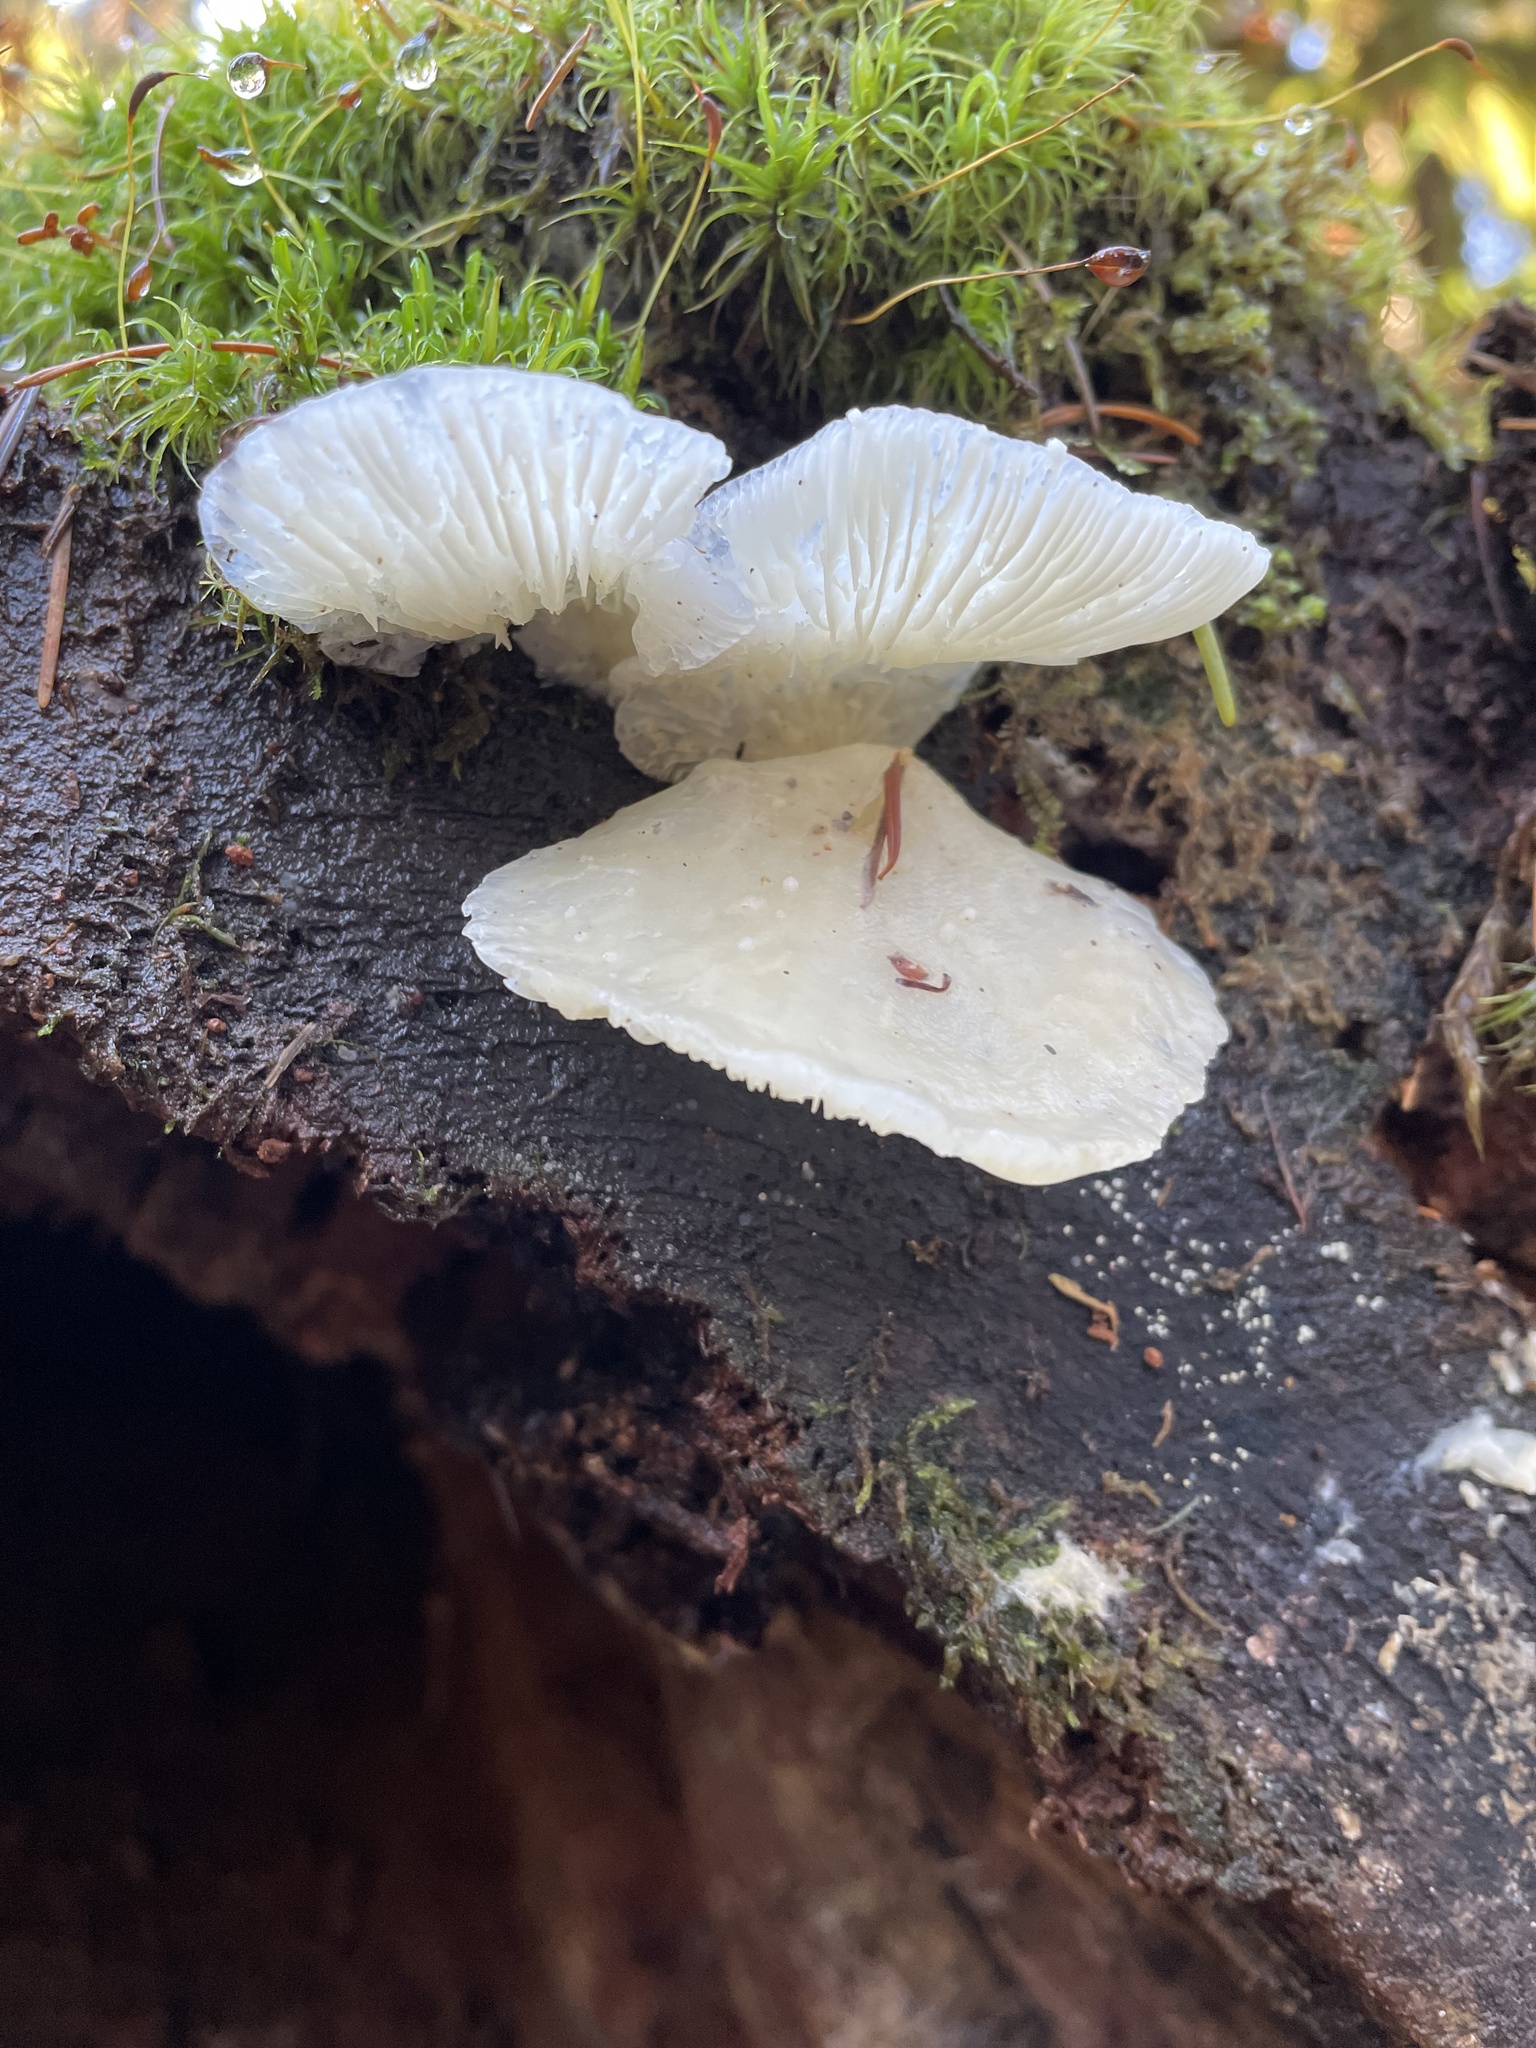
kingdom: Fungi
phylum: Basidiomycota
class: Agaricomycetes
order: Agaricales
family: Pleurotaceae
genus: Pleurotus
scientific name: Pleurotus pulmonarius
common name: Pale oyster
